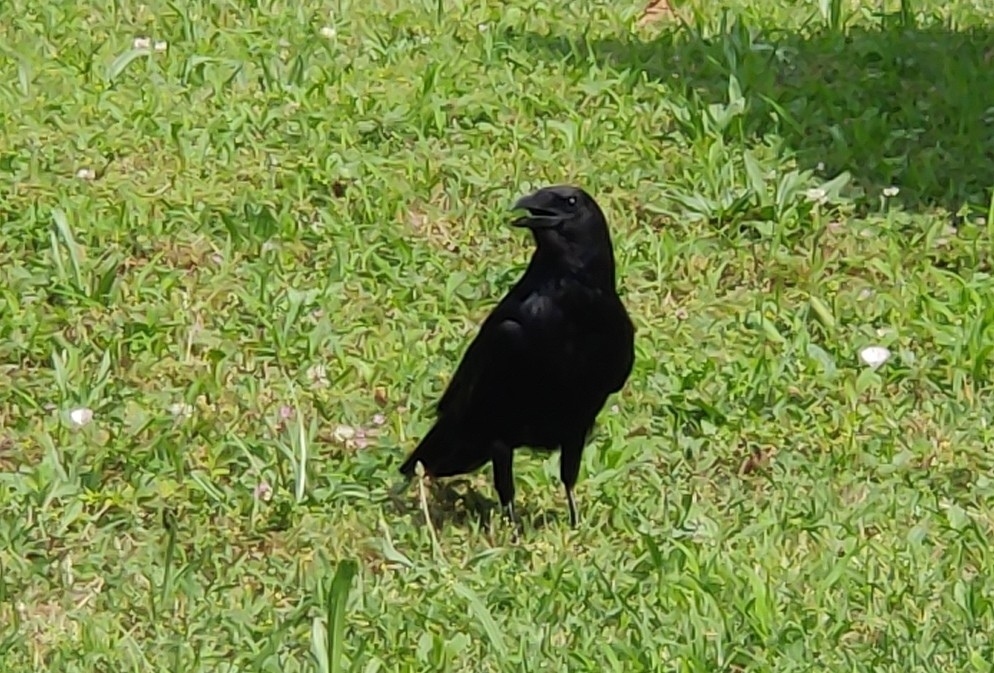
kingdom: Animalia
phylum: Chordata
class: Aves
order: Passeriformes
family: Corvidae
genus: Corvus
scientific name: Corvus corone
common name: Carrion crow
